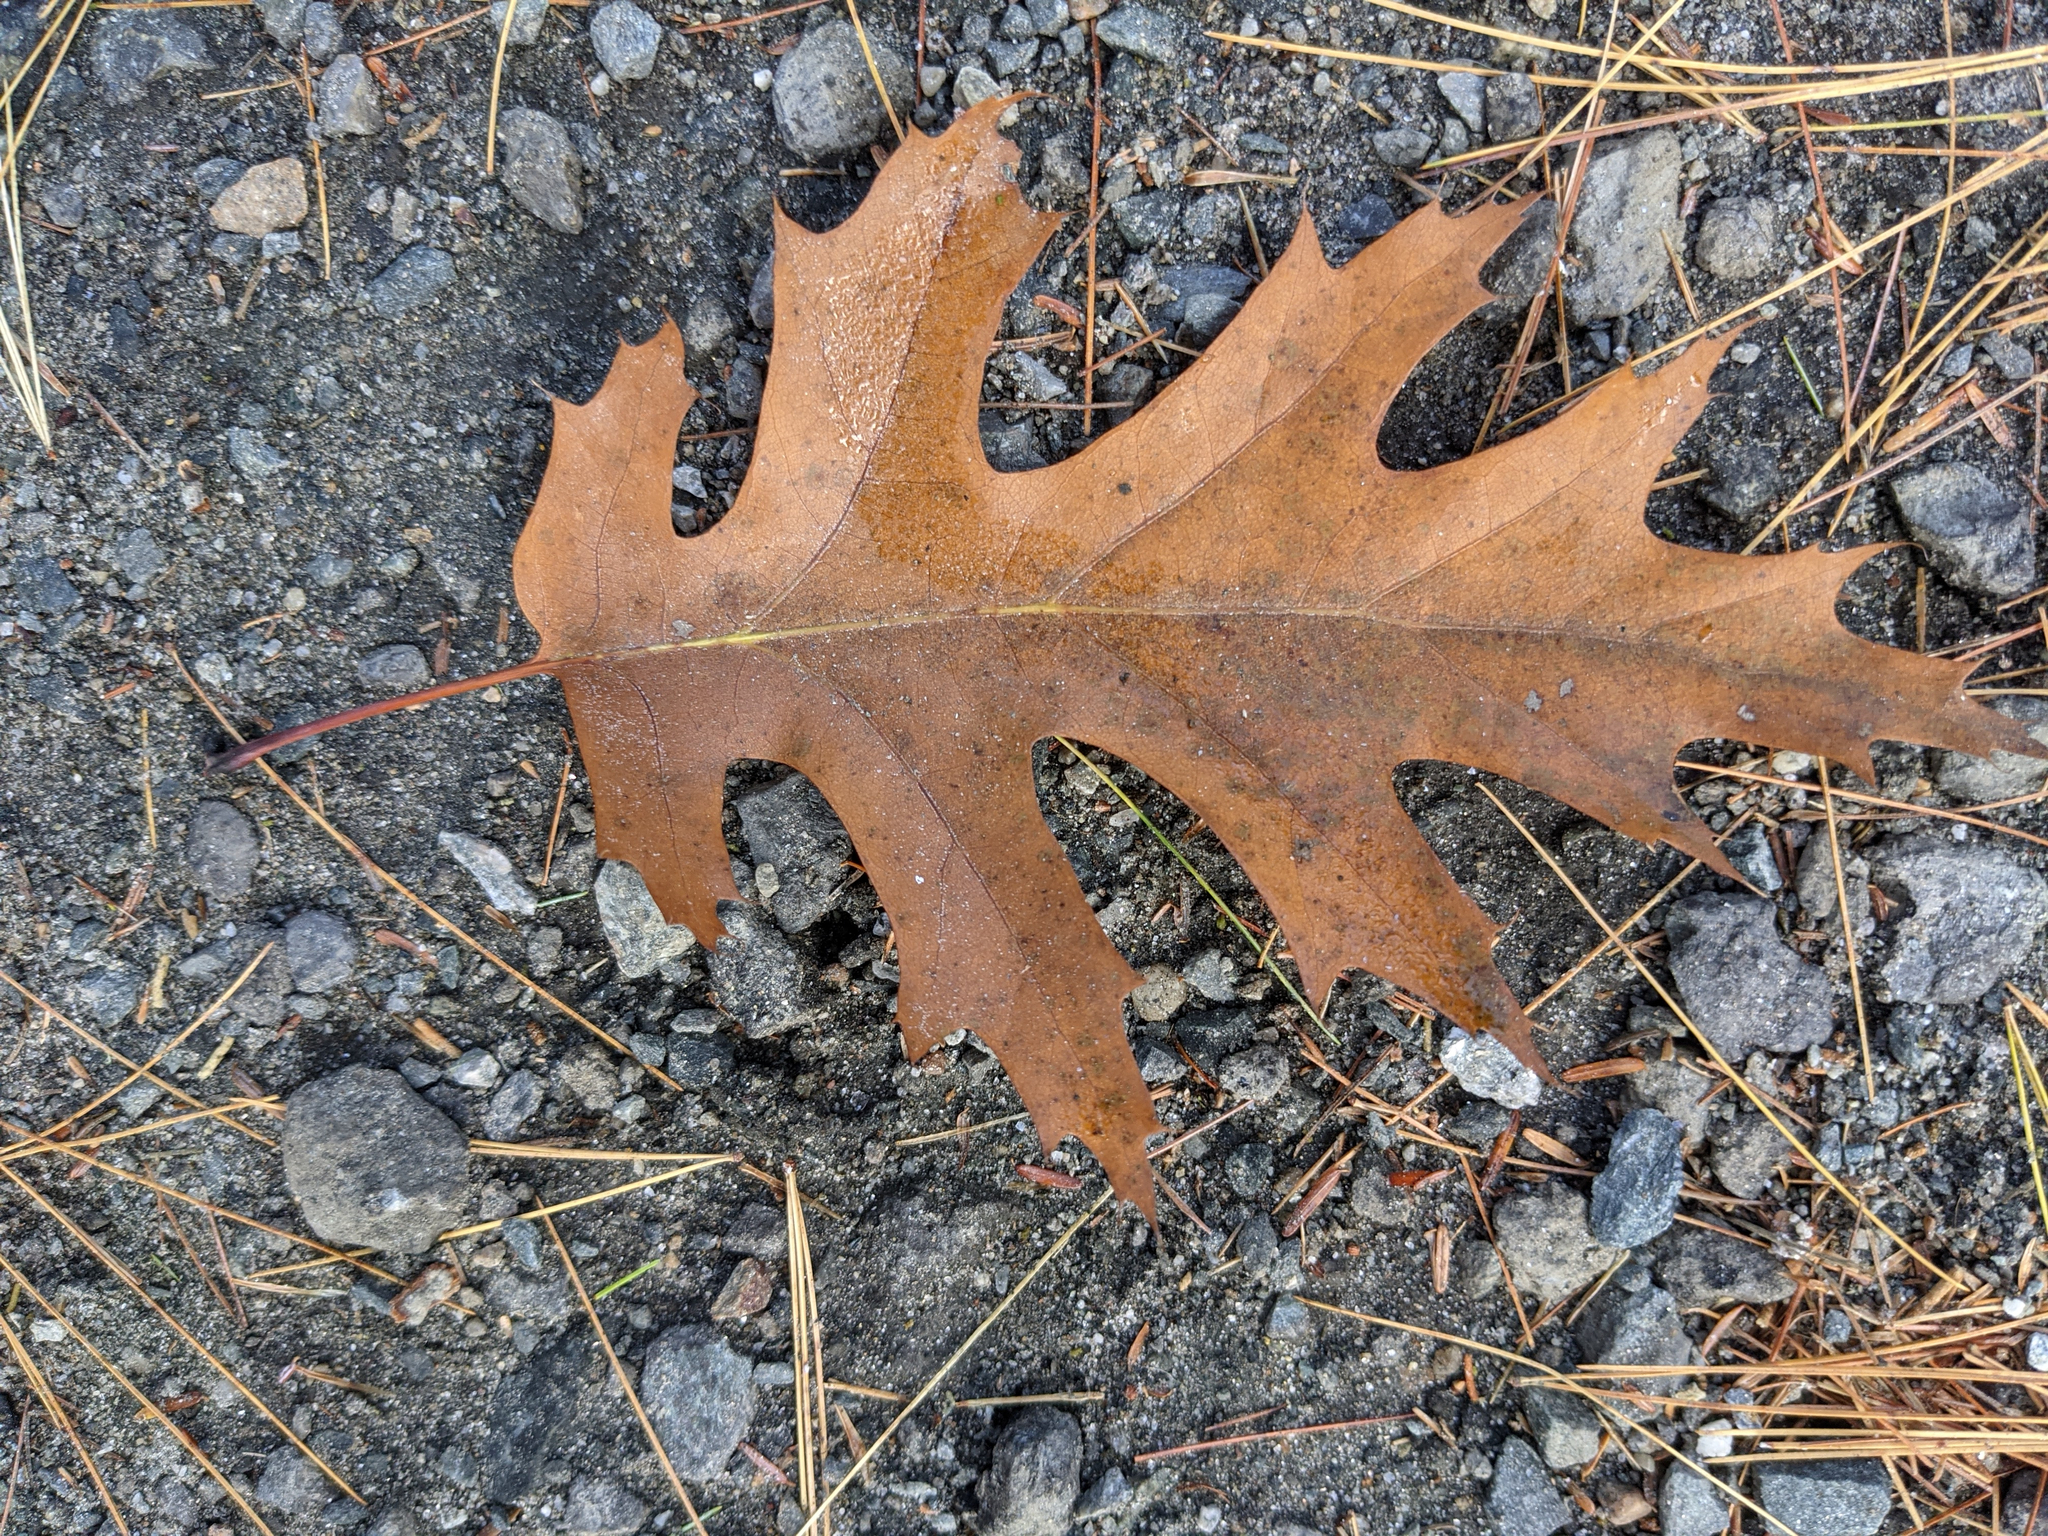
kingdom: Plantae
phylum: Tracheophyta
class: Magnoliopsida
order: Fagales
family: Fagaceae
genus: Quercus
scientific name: Quercus rubra
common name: Red oak
